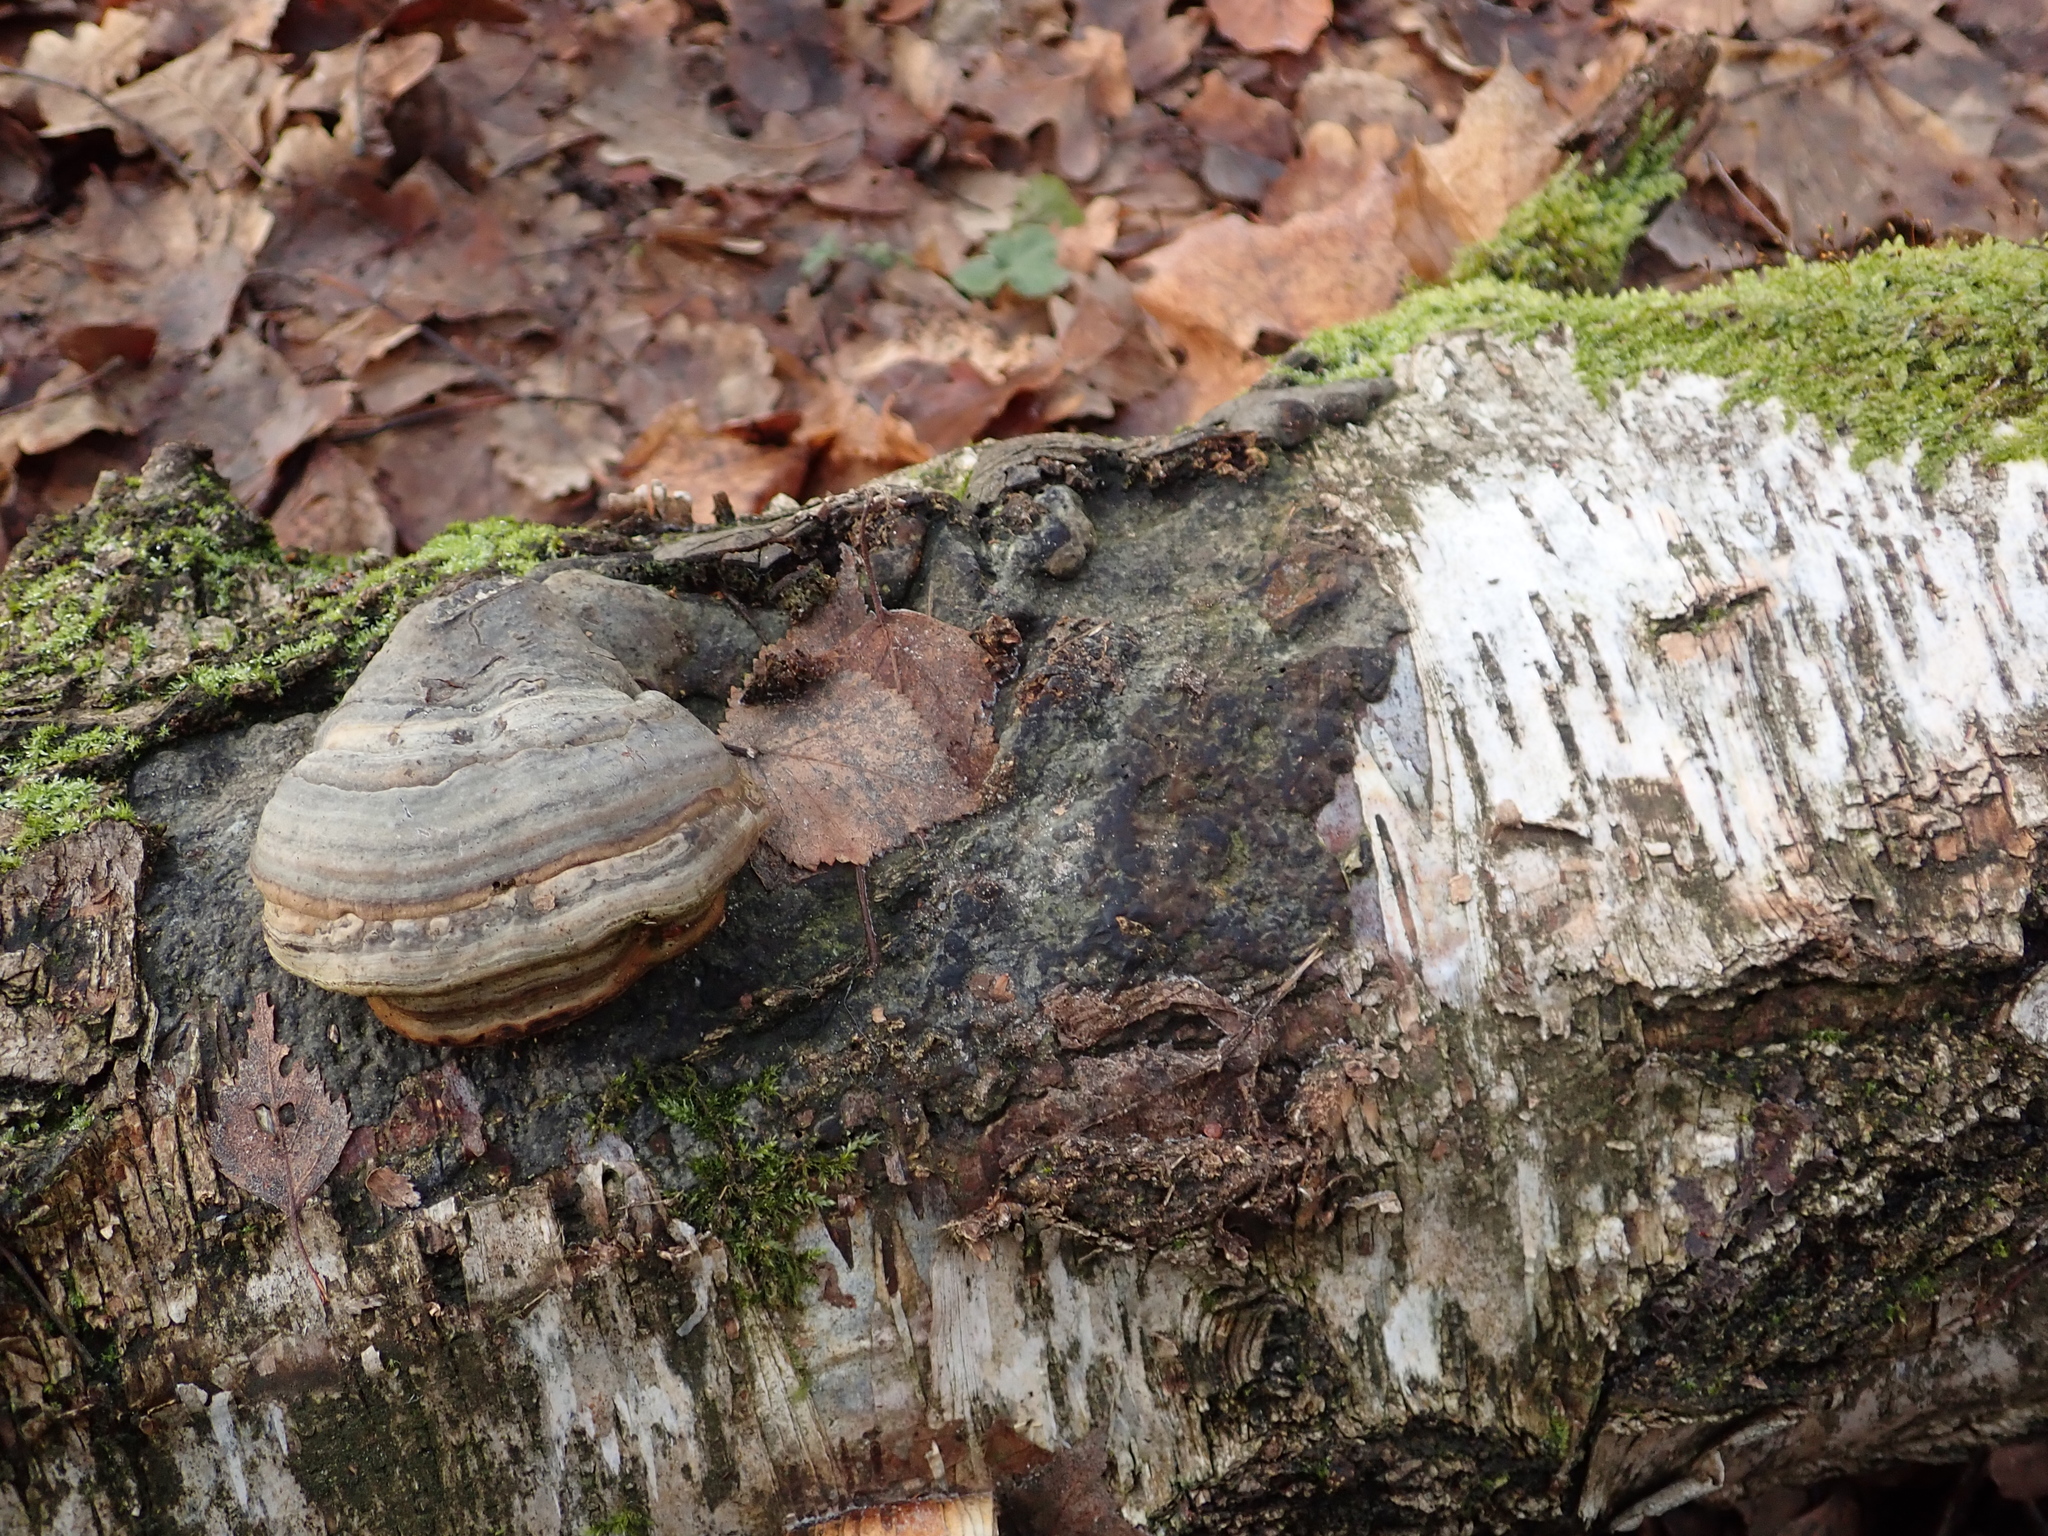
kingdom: Fungi
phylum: Basidiomycota
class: Agaricomycetes
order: Polyporales
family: Polyporaceae
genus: Fomes
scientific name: Fomes fomentarius
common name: Hoof fungus
